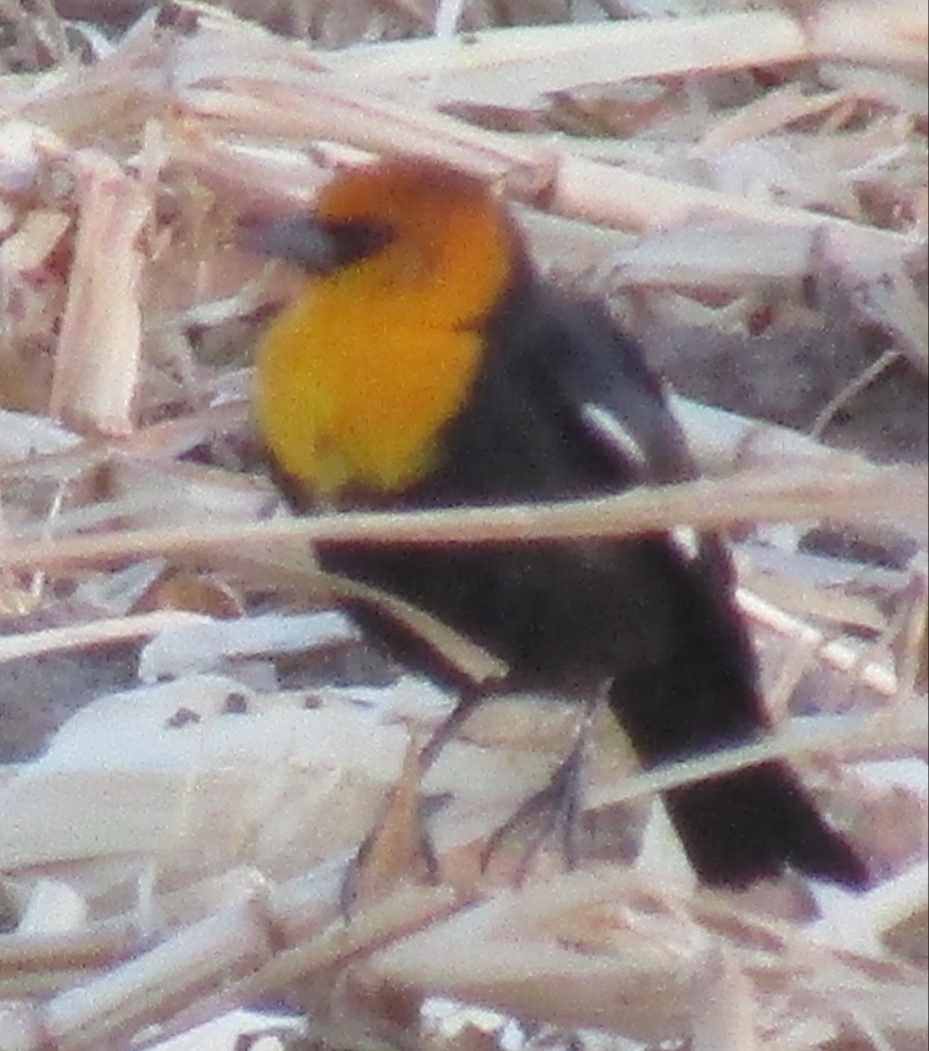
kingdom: Animalia
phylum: Chordata
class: Aves
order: Passeriformes
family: Icteridae
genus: Xanthocephalus
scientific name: Xanthocephalus xanthocephalus
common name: Yellow-headed blackbird
